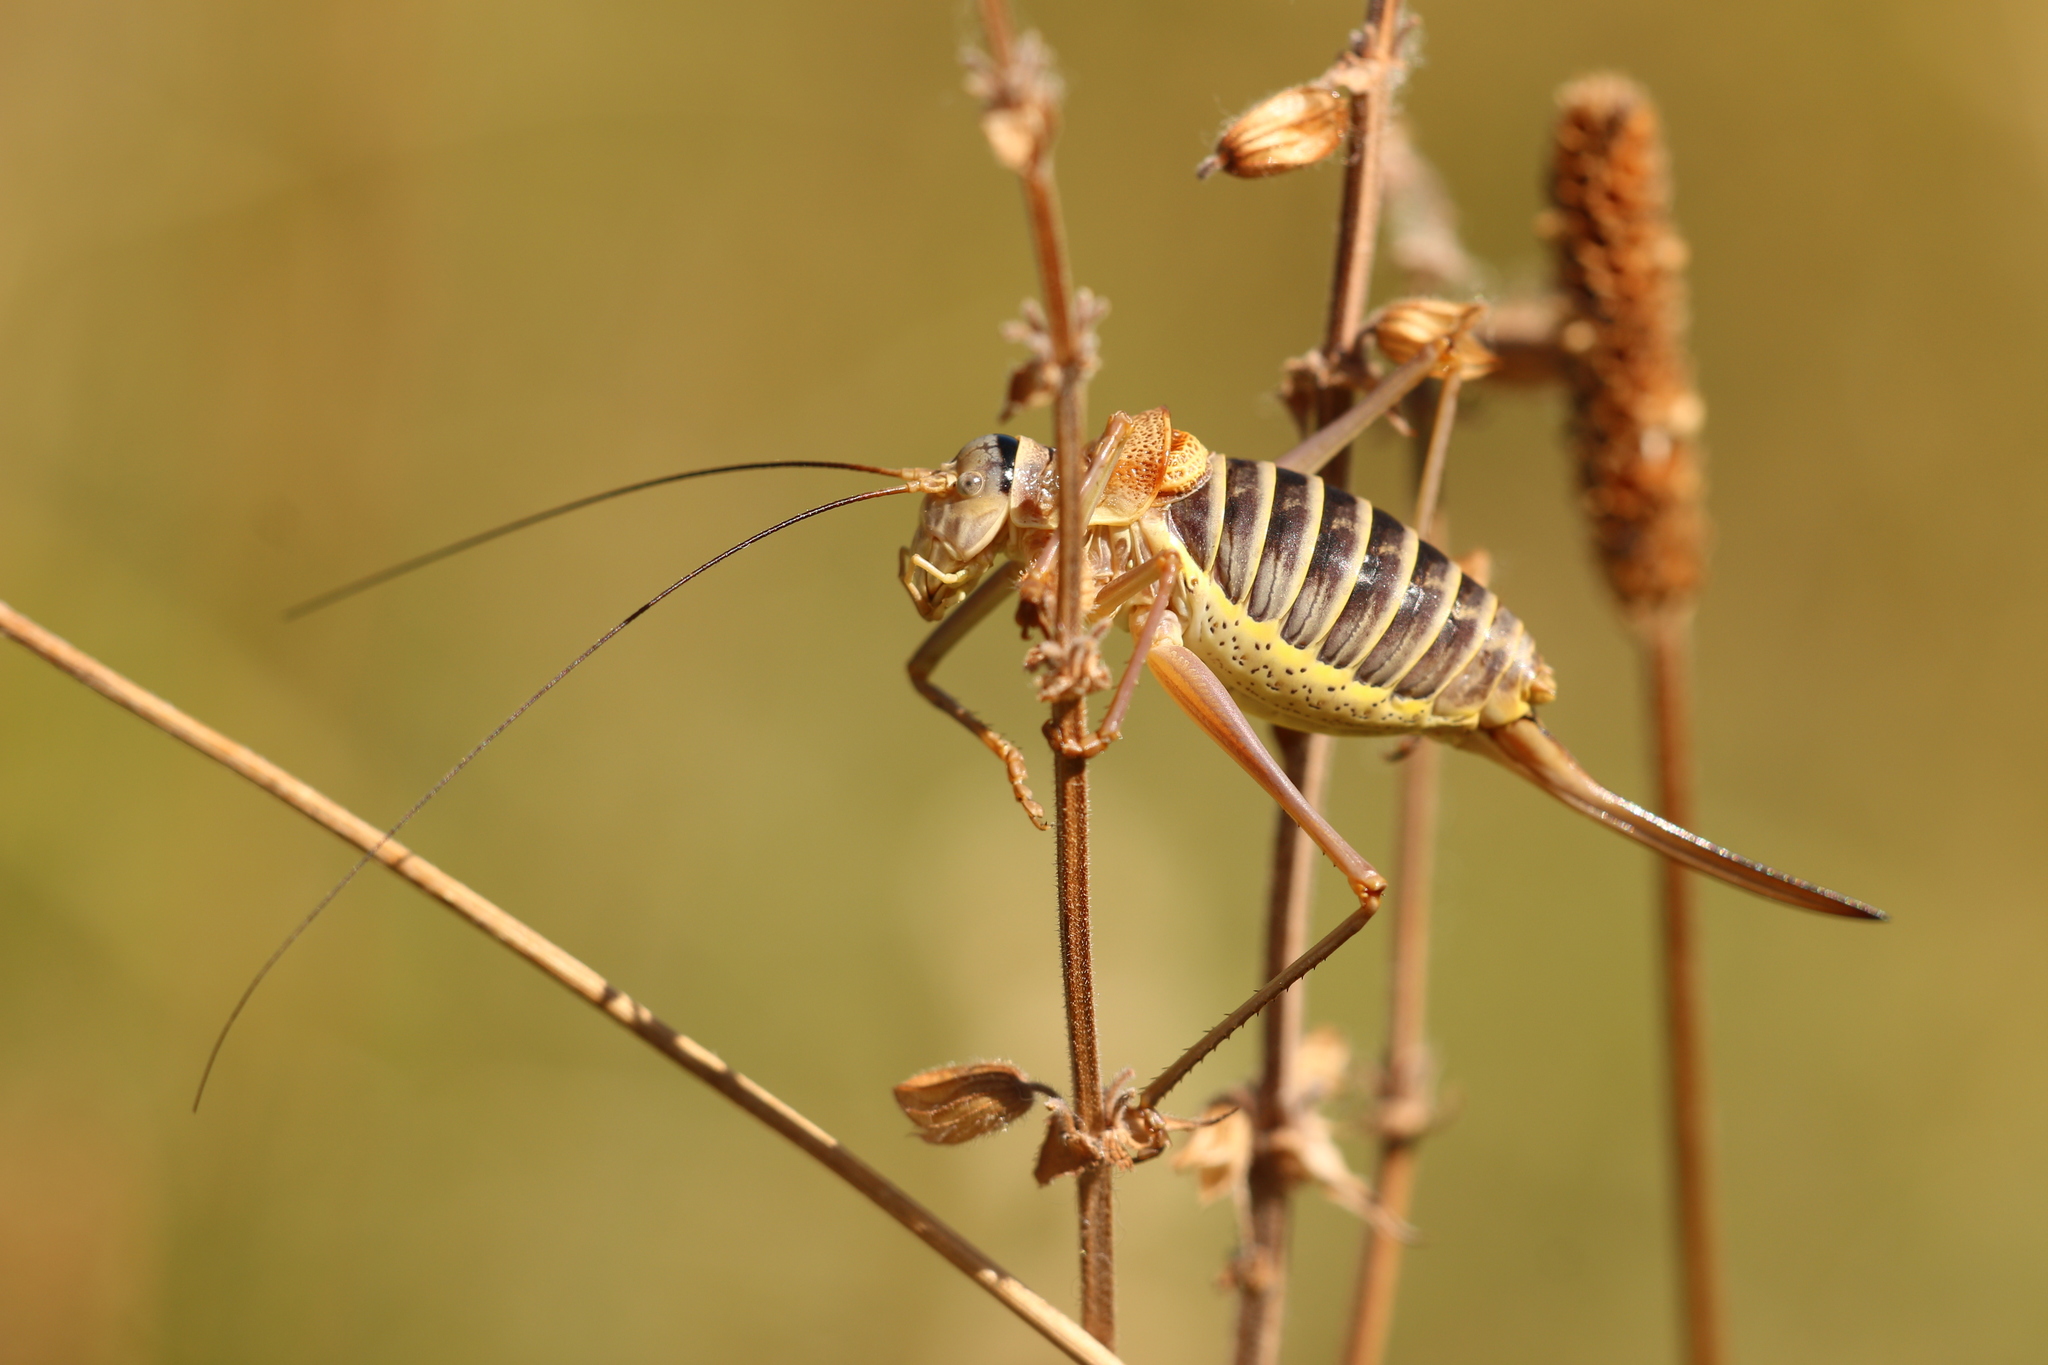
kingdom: Animalia
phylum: Arthropoda
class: Insecta
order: Orthoptera
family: Tettigoniidae
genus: Ephippiger
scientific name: Ephippiger diurnus
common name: Western saddle bush-cricket
